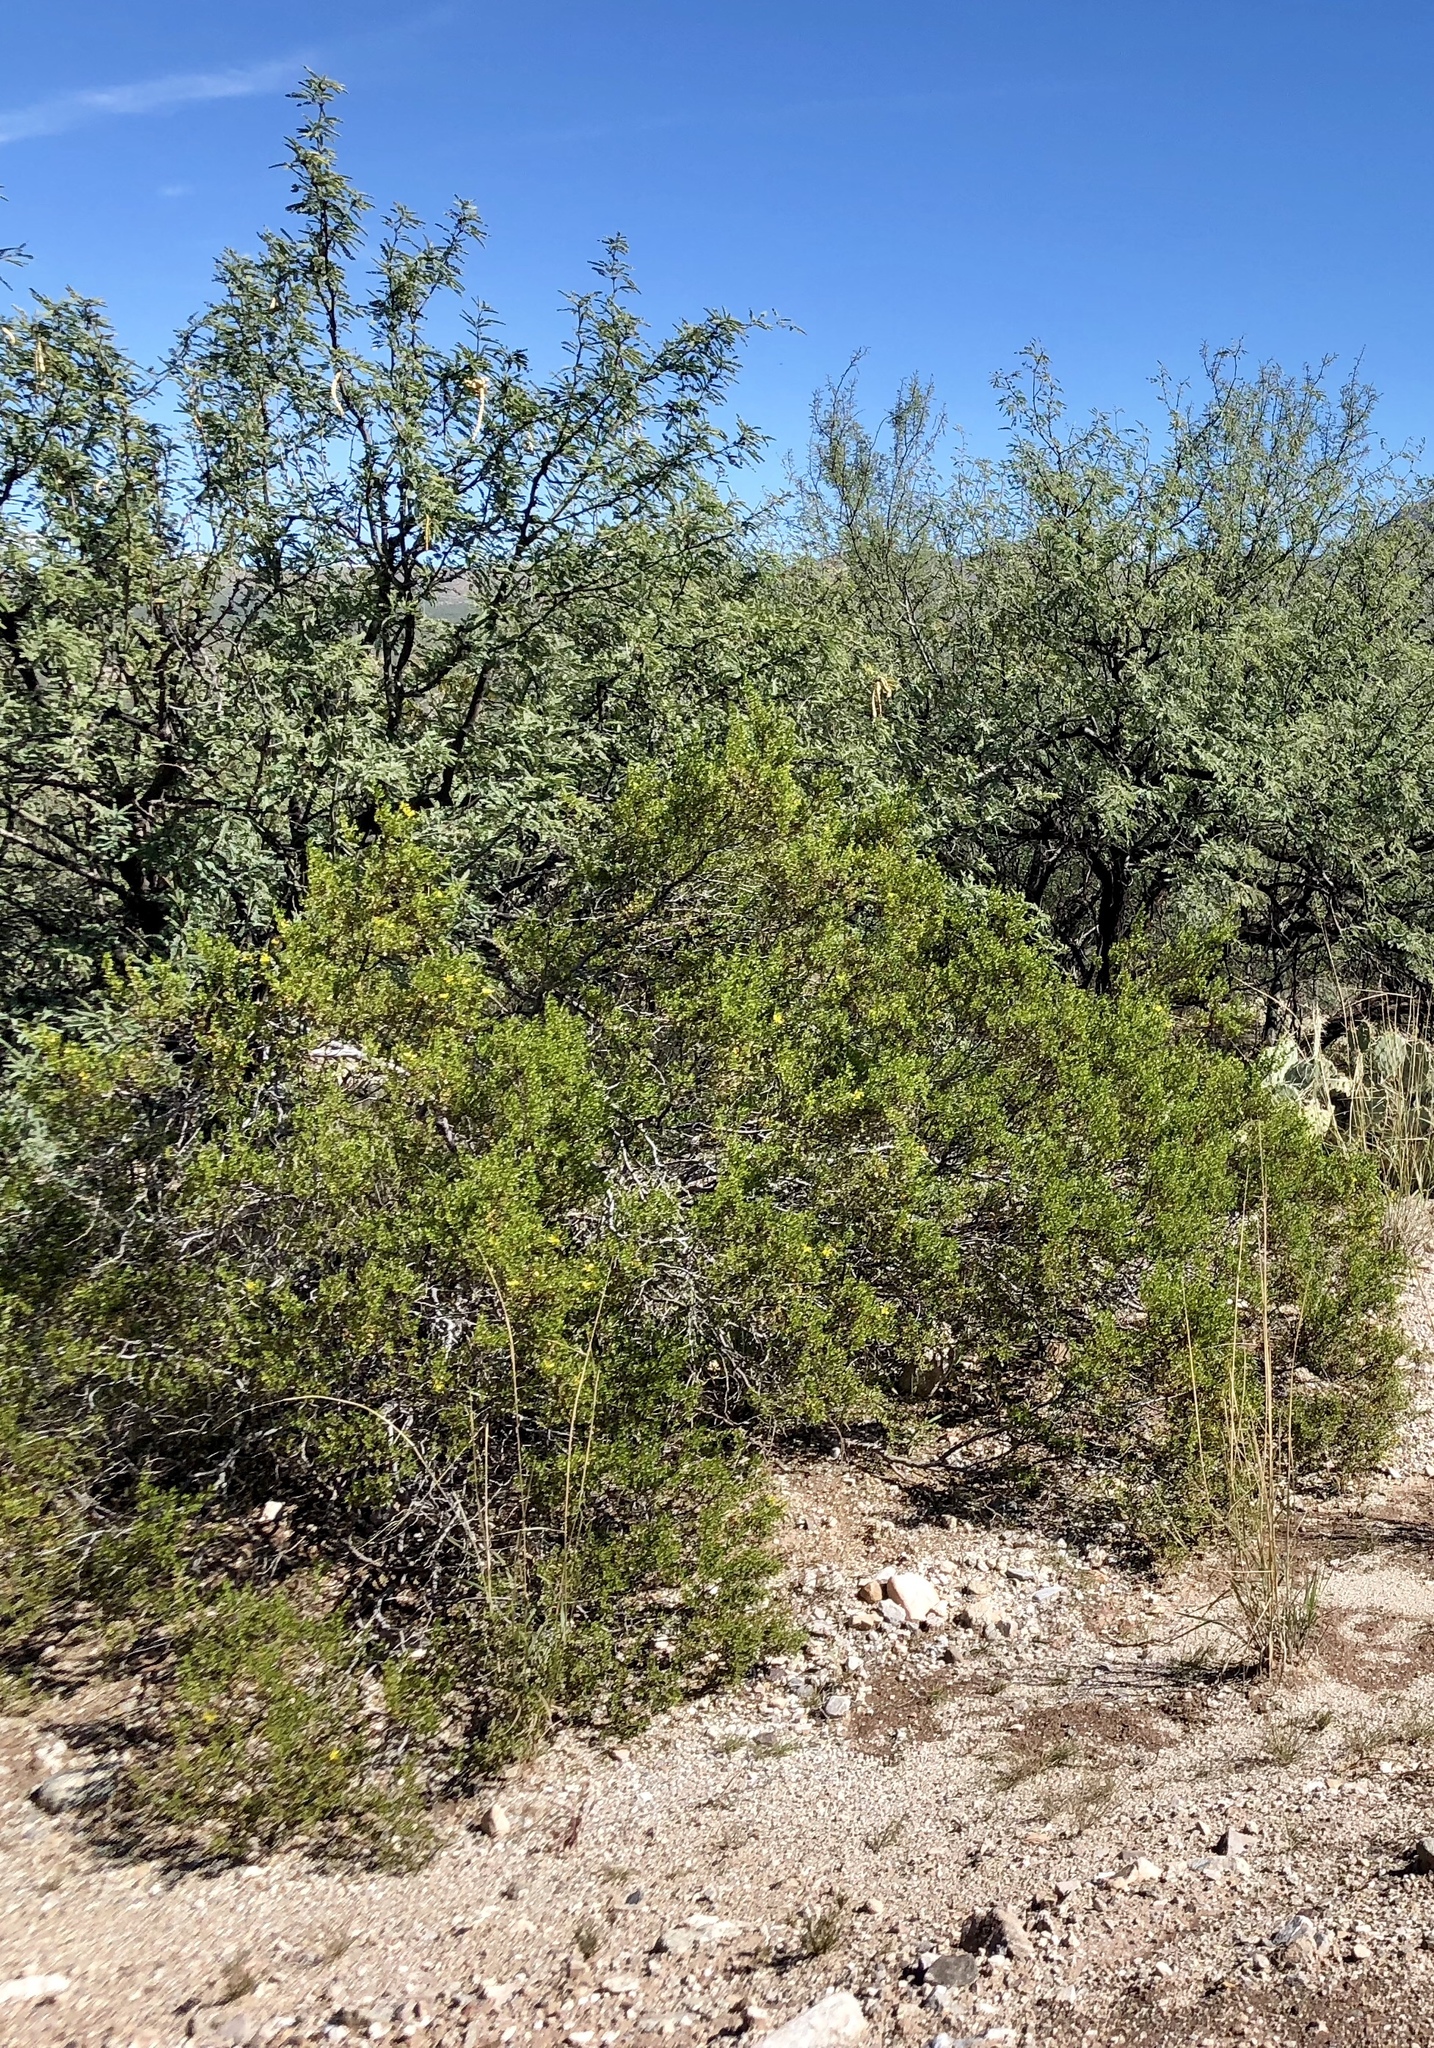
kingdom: Plantae
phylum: Tracheophyta
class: Magnoliopsida
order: Zygophyllales
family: Zygophyllaceae
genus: Larrea
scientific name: Larrea tridentata
